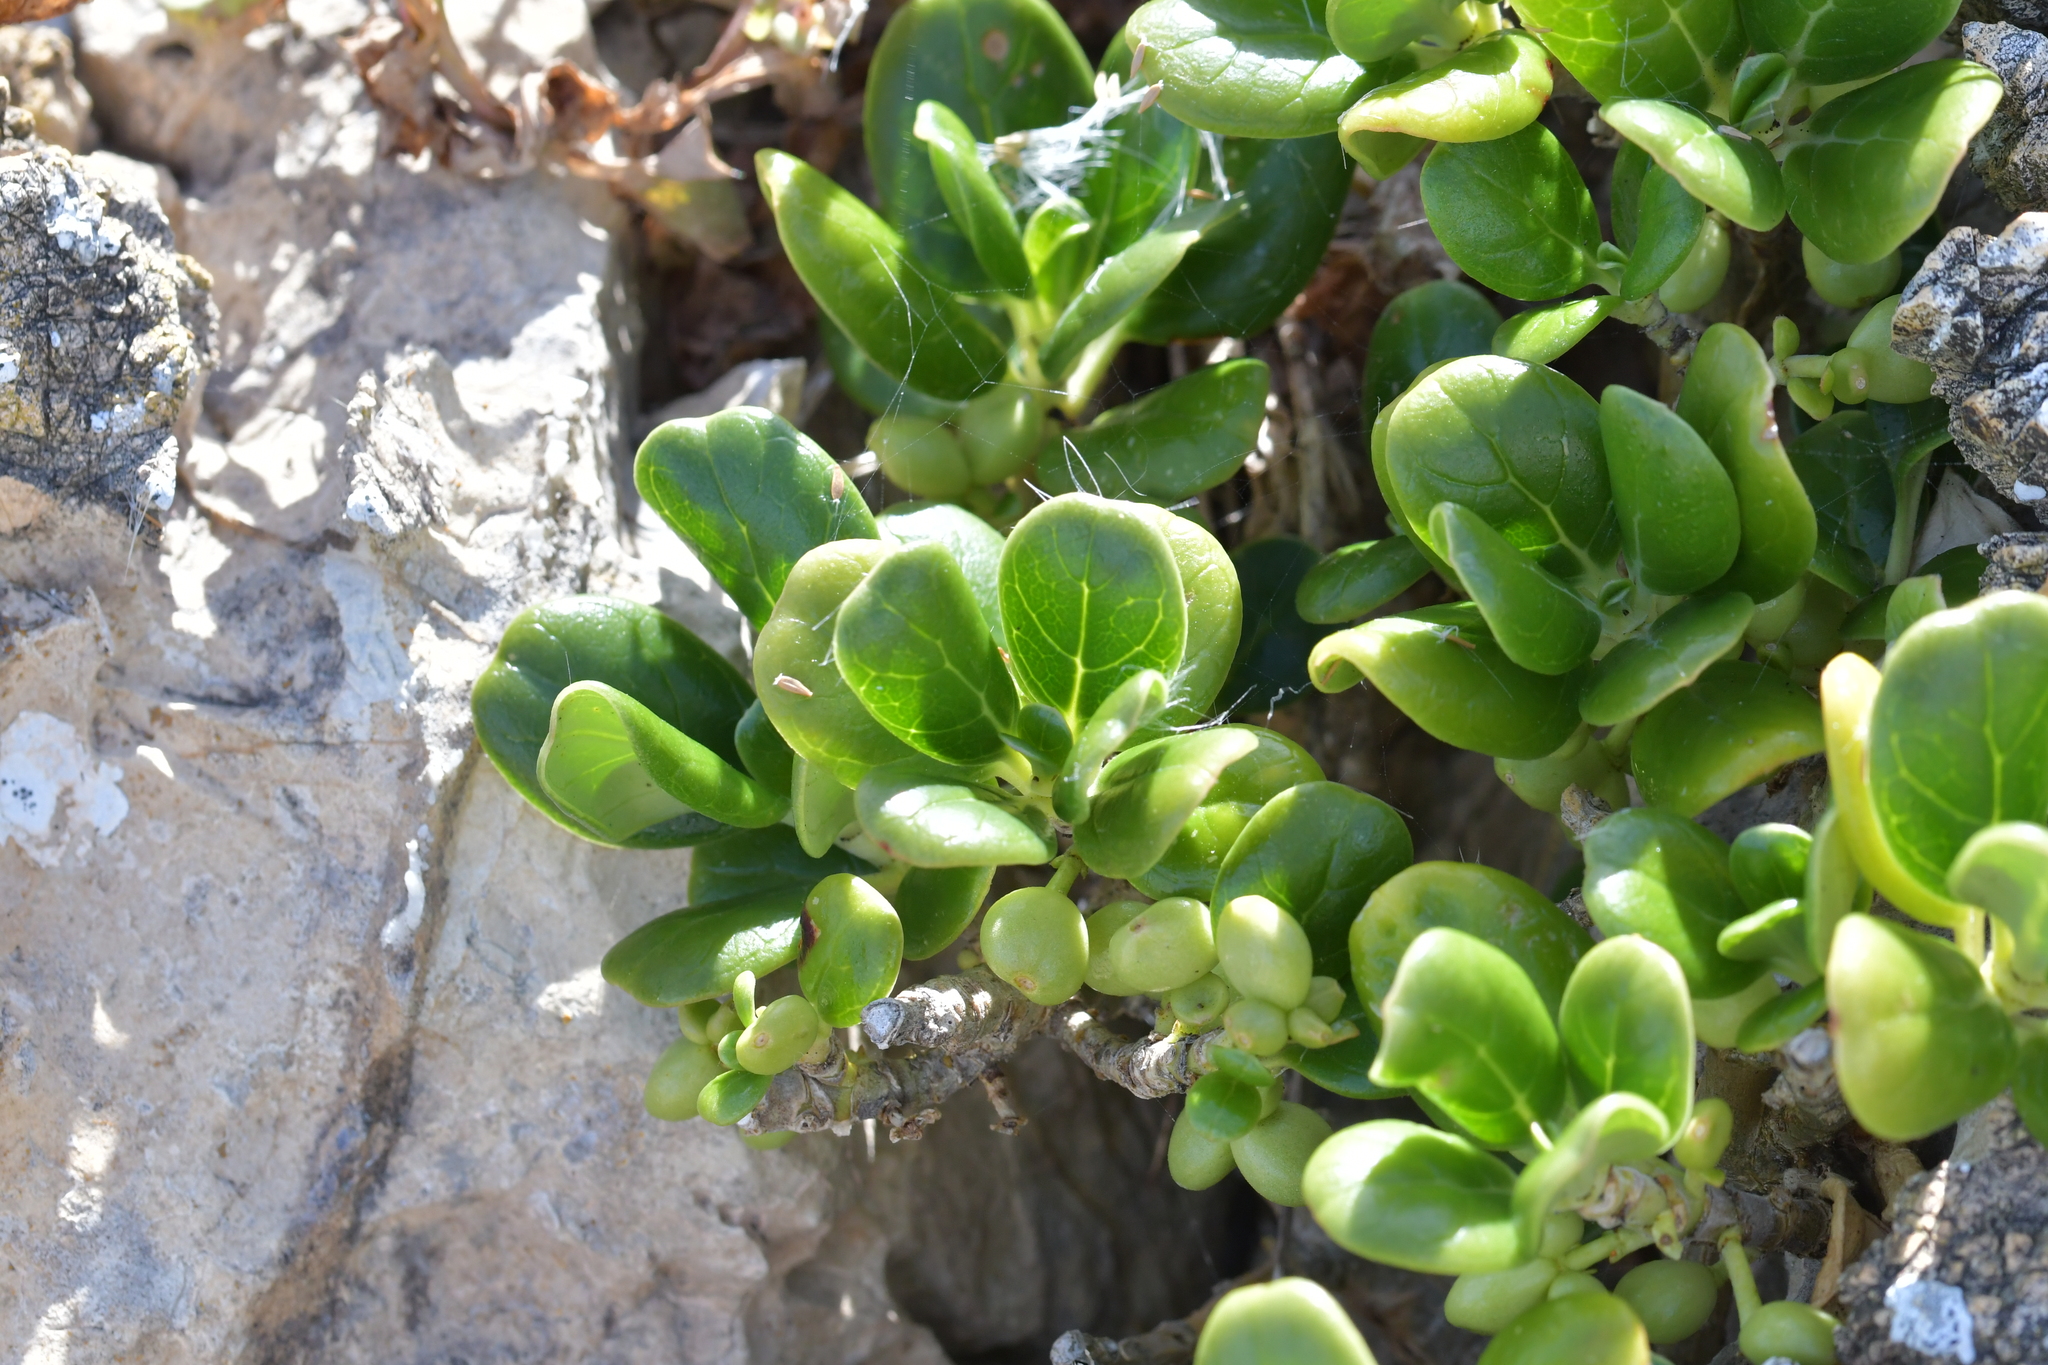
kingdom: Plantae
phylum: Tracheophyta
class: Magnoliopsida
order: Gentianales
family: Rubiaceae
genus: Coprosma
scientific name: Coprosma repens
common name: Tree bedstraw
